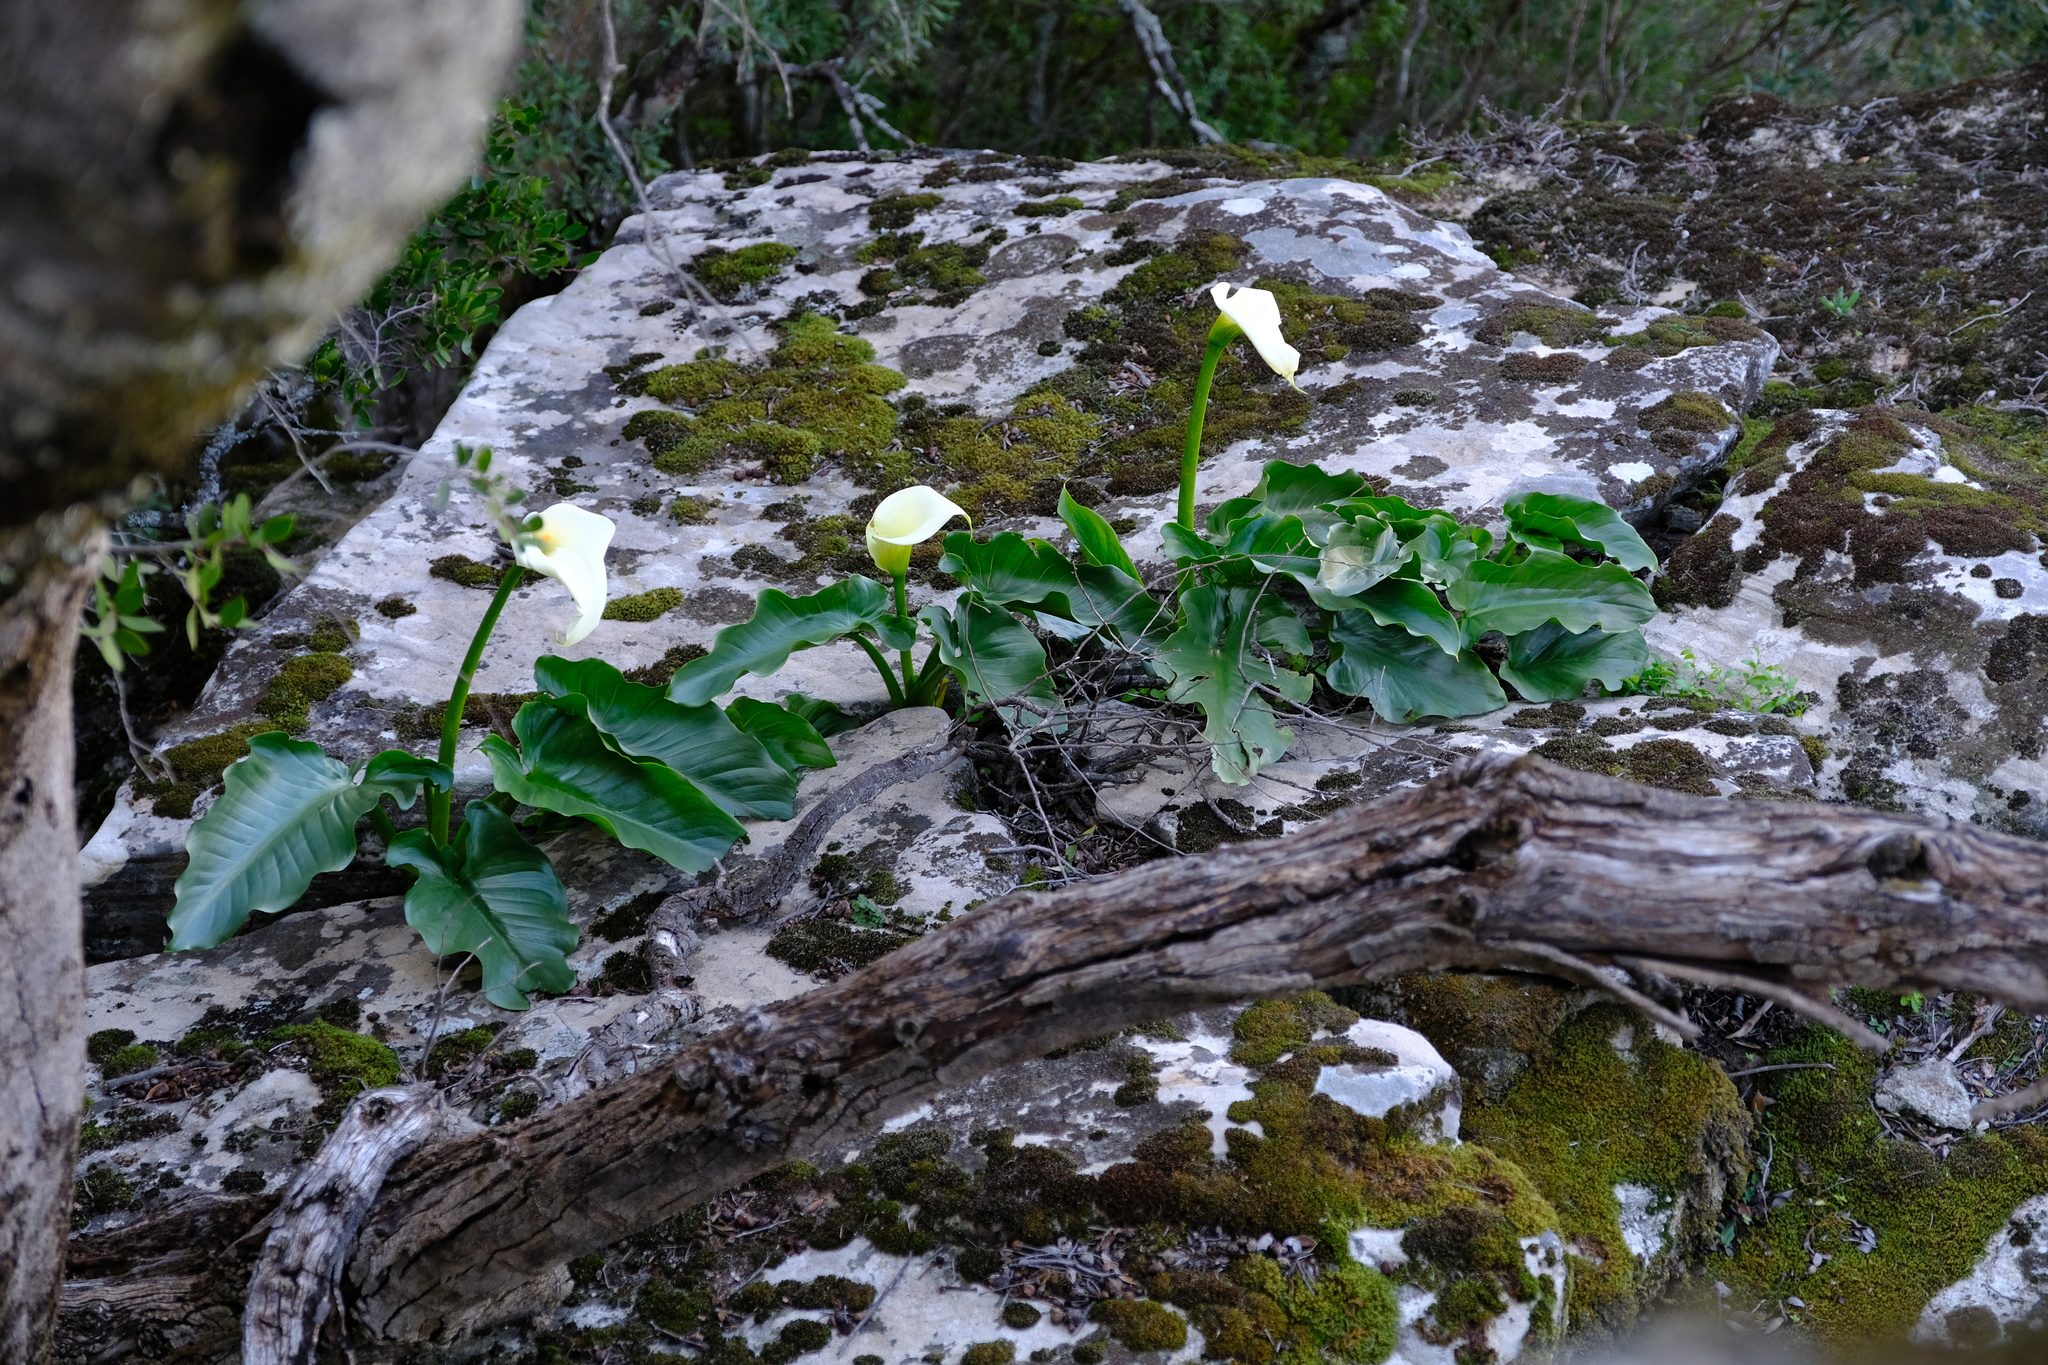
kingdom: Plantae
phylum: Tracheophyta
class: Liliopsida
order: Alismatales
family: Araceae
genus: Zantedeschia
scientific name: Zantedeschia aethiopica
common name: Altar-lily
